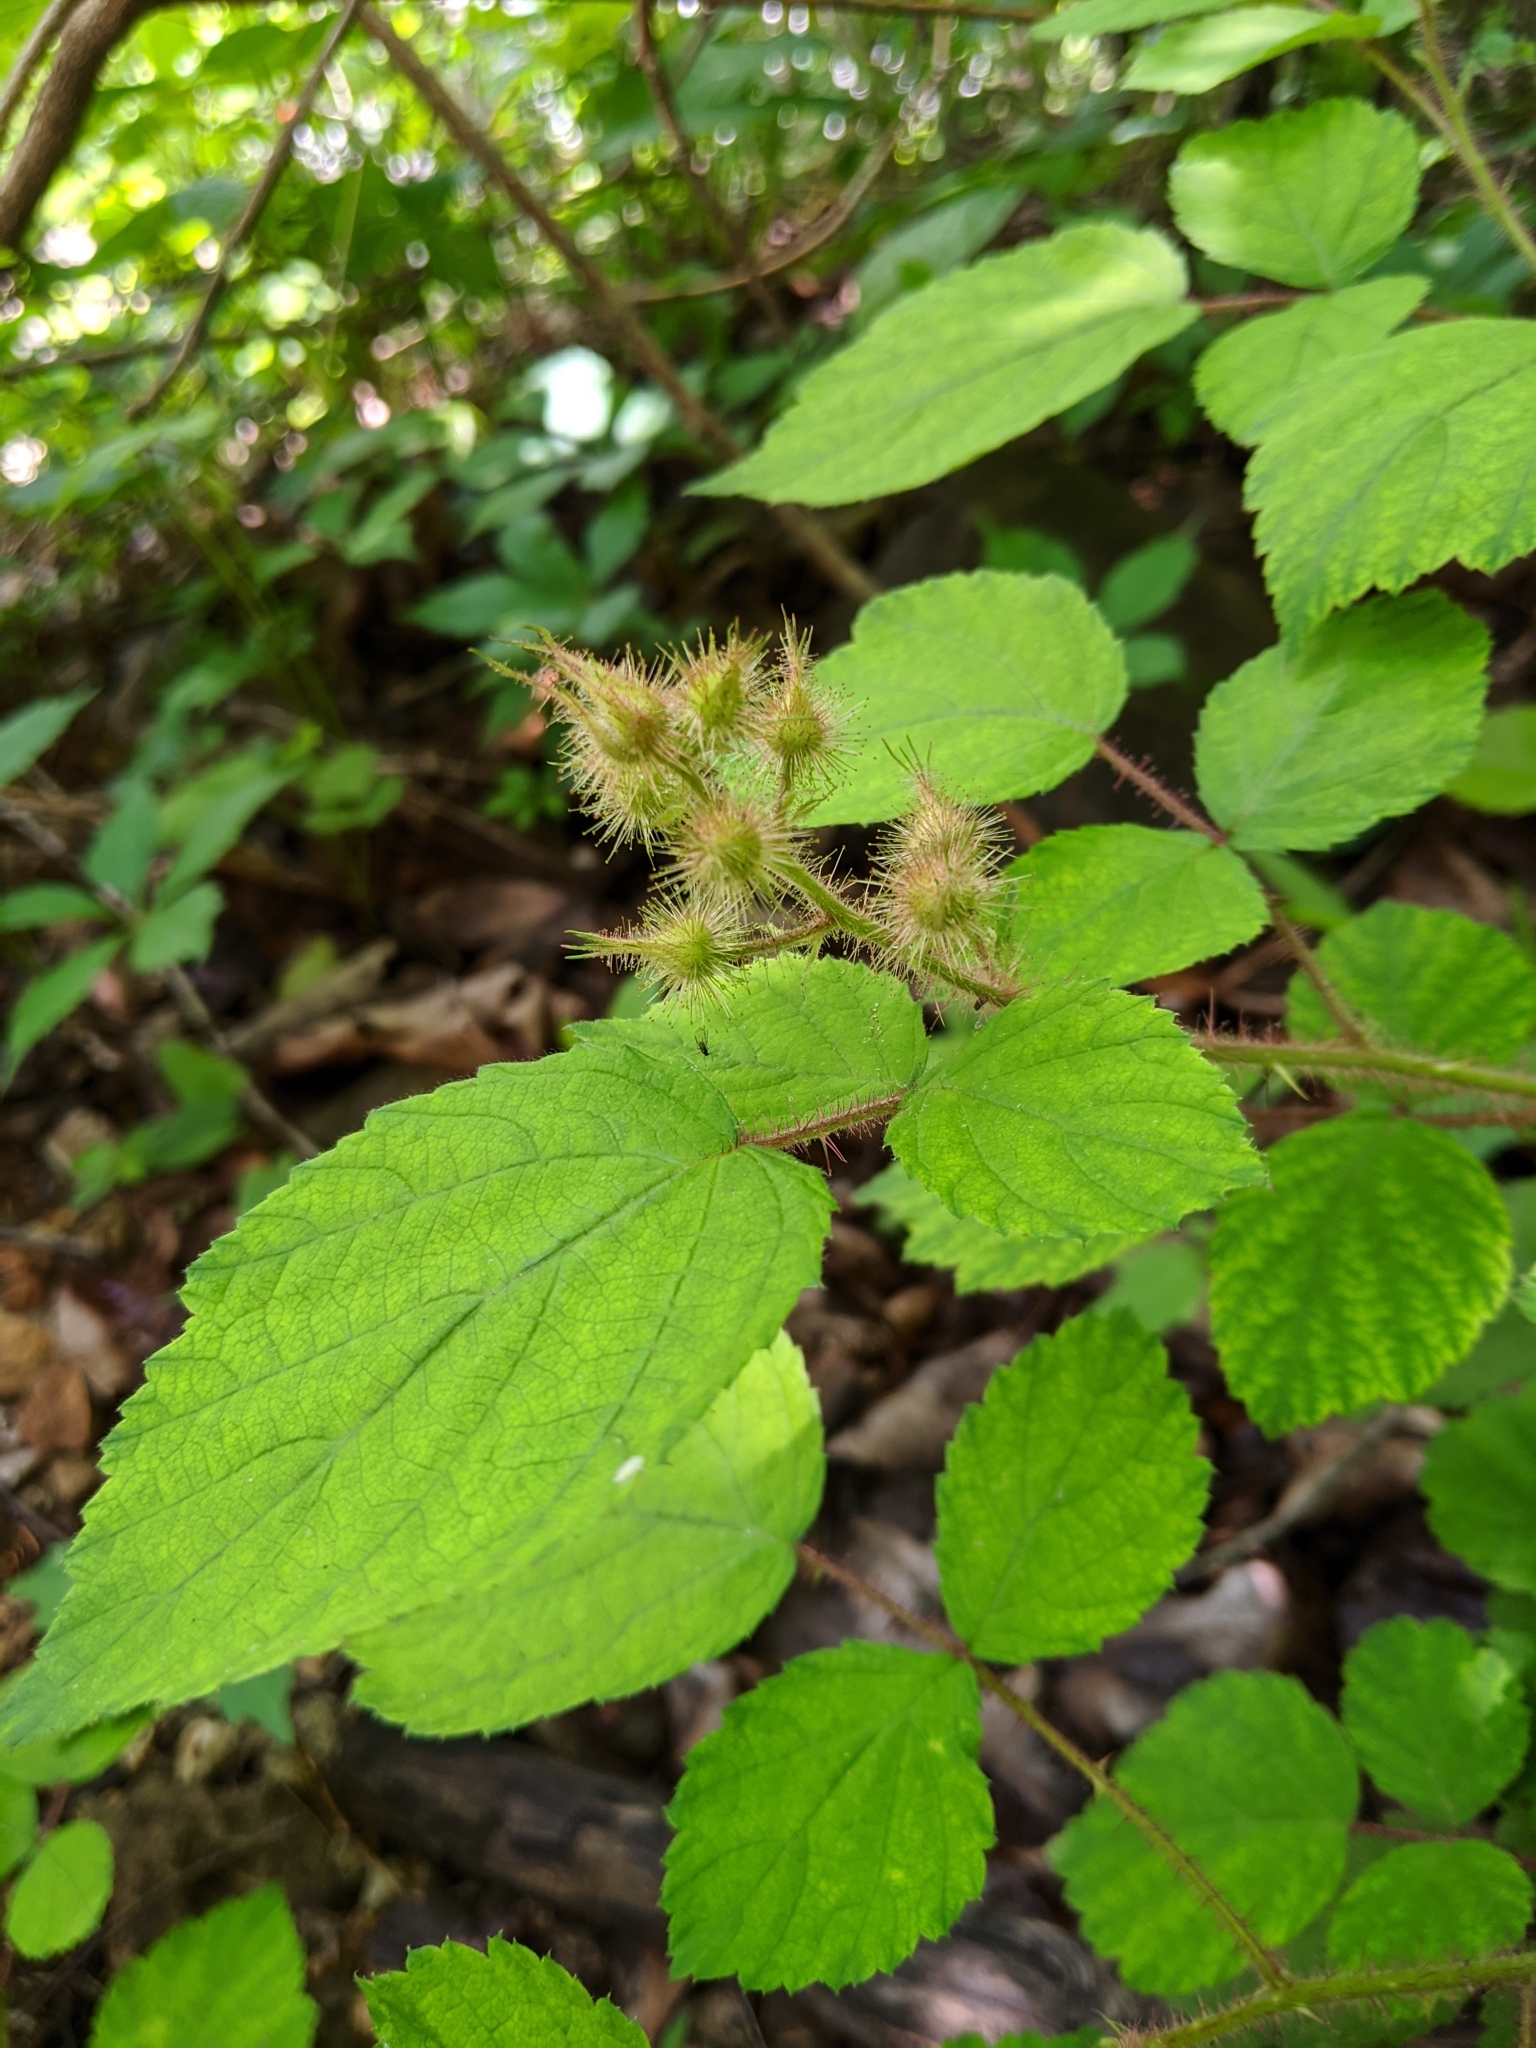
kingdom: Plantae
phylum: Tracheophyta
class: Magnoliopsida
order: Rosales
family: Rosaceae
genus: Rubus
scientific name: Rubus phoenicolasius
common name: Japanese wineberry
